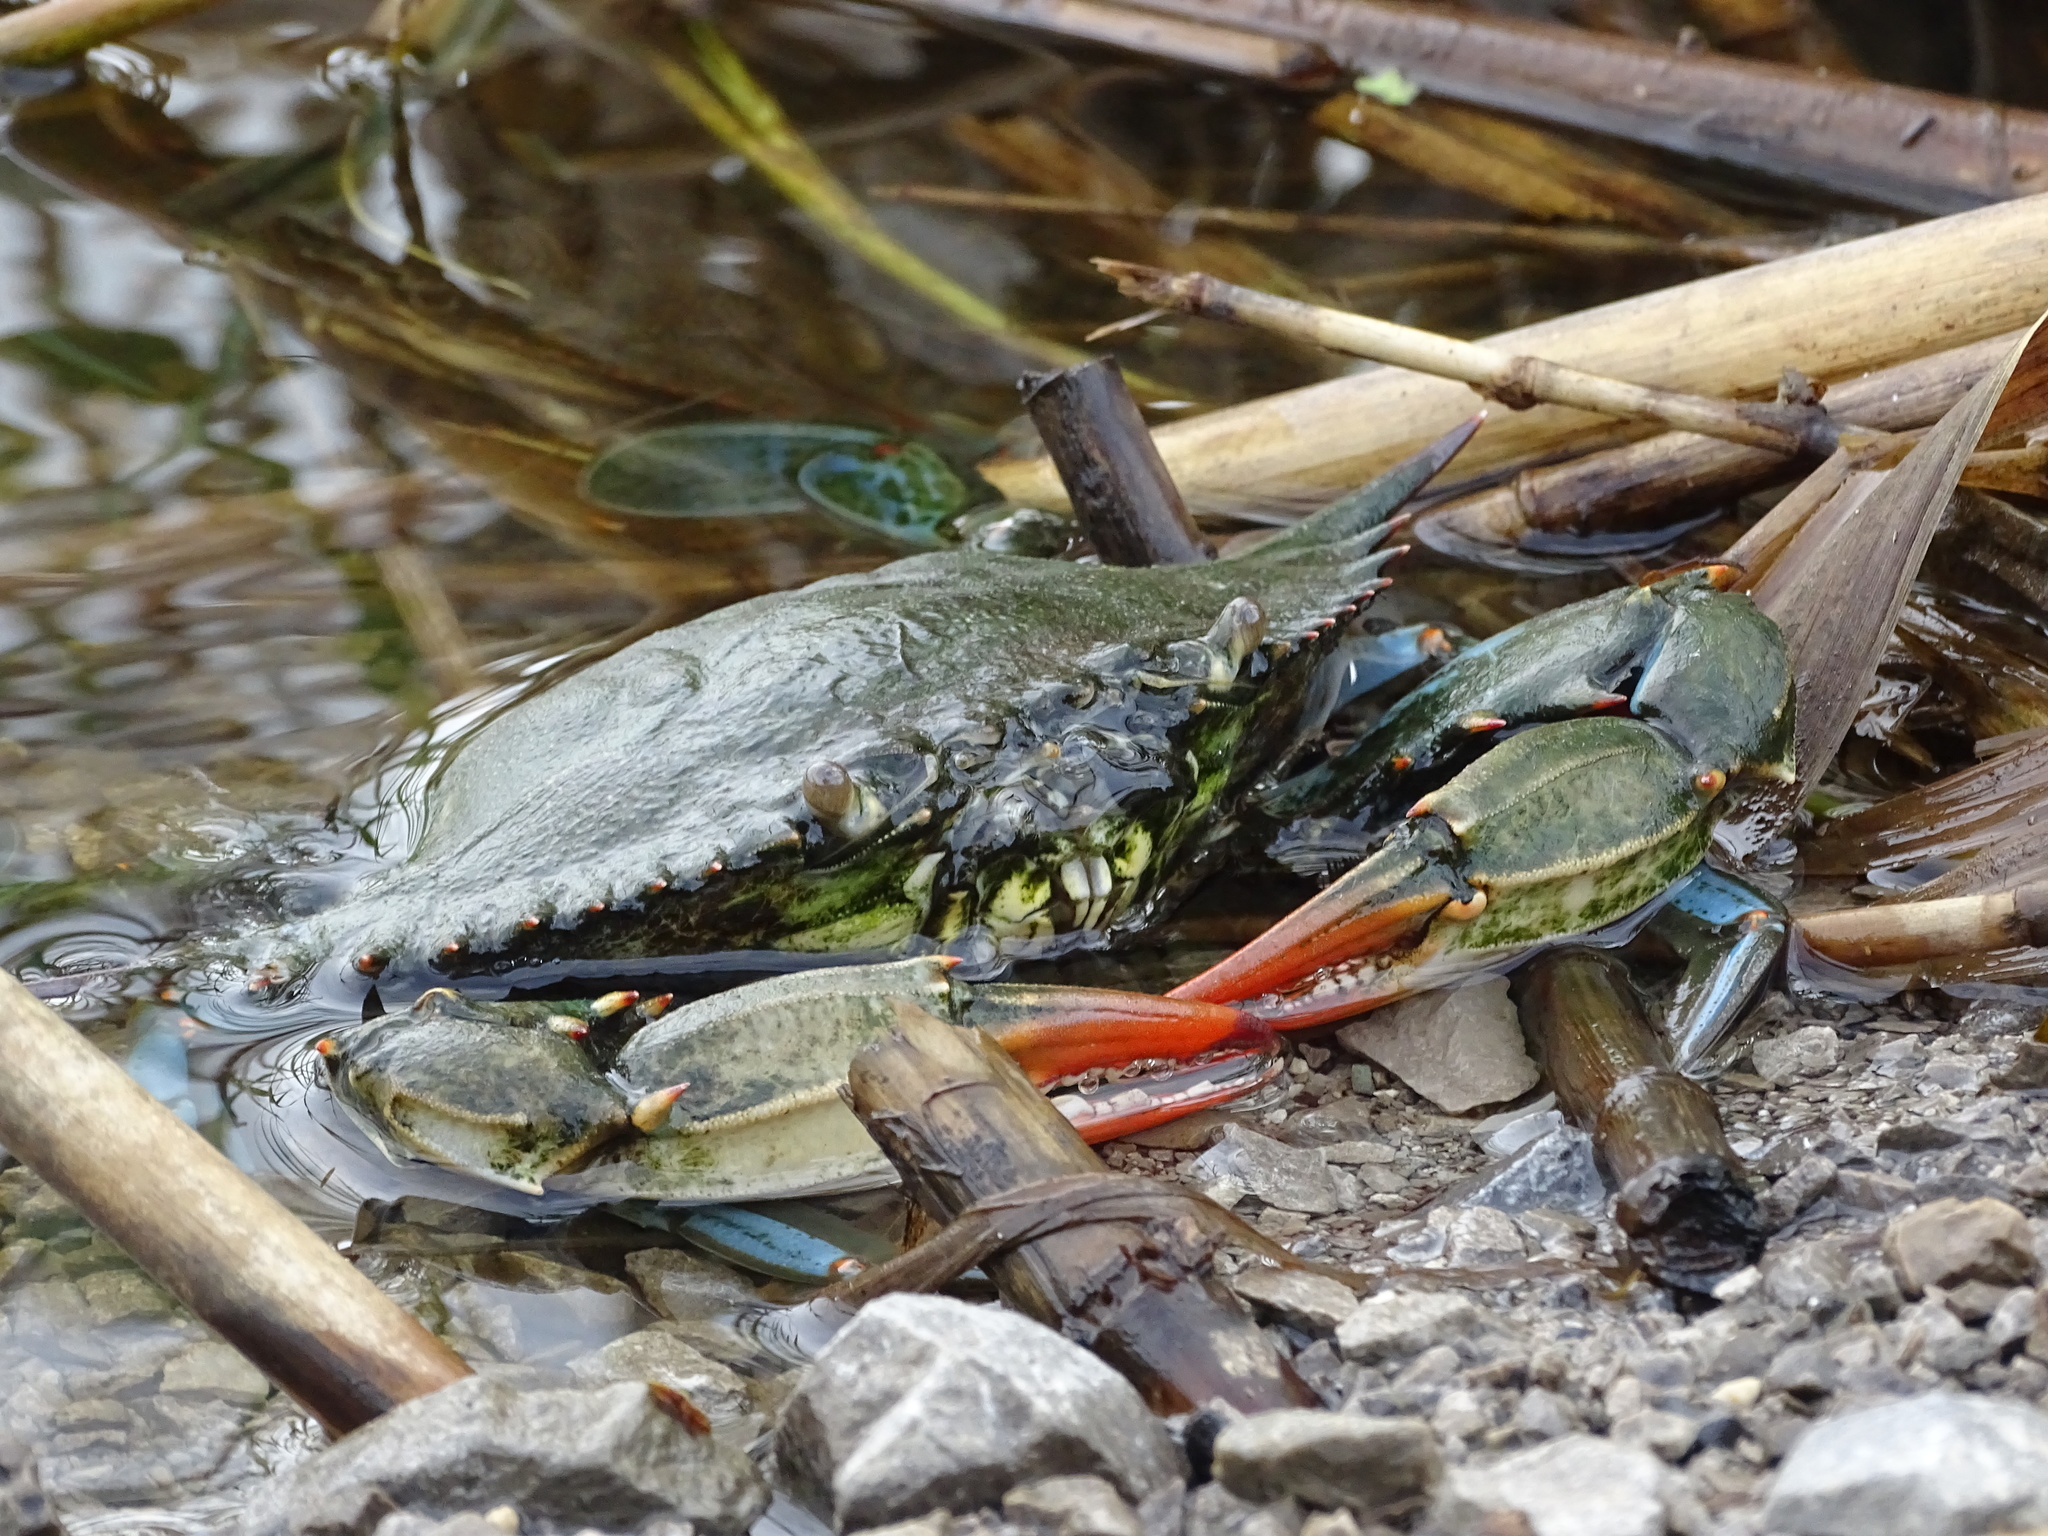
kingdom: Animalia
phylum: Arthropoda
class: Malacostraca
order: Decapoda
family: Portunidae
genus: Callinectes
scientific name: Callinectes sapidus
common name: Blue crab
